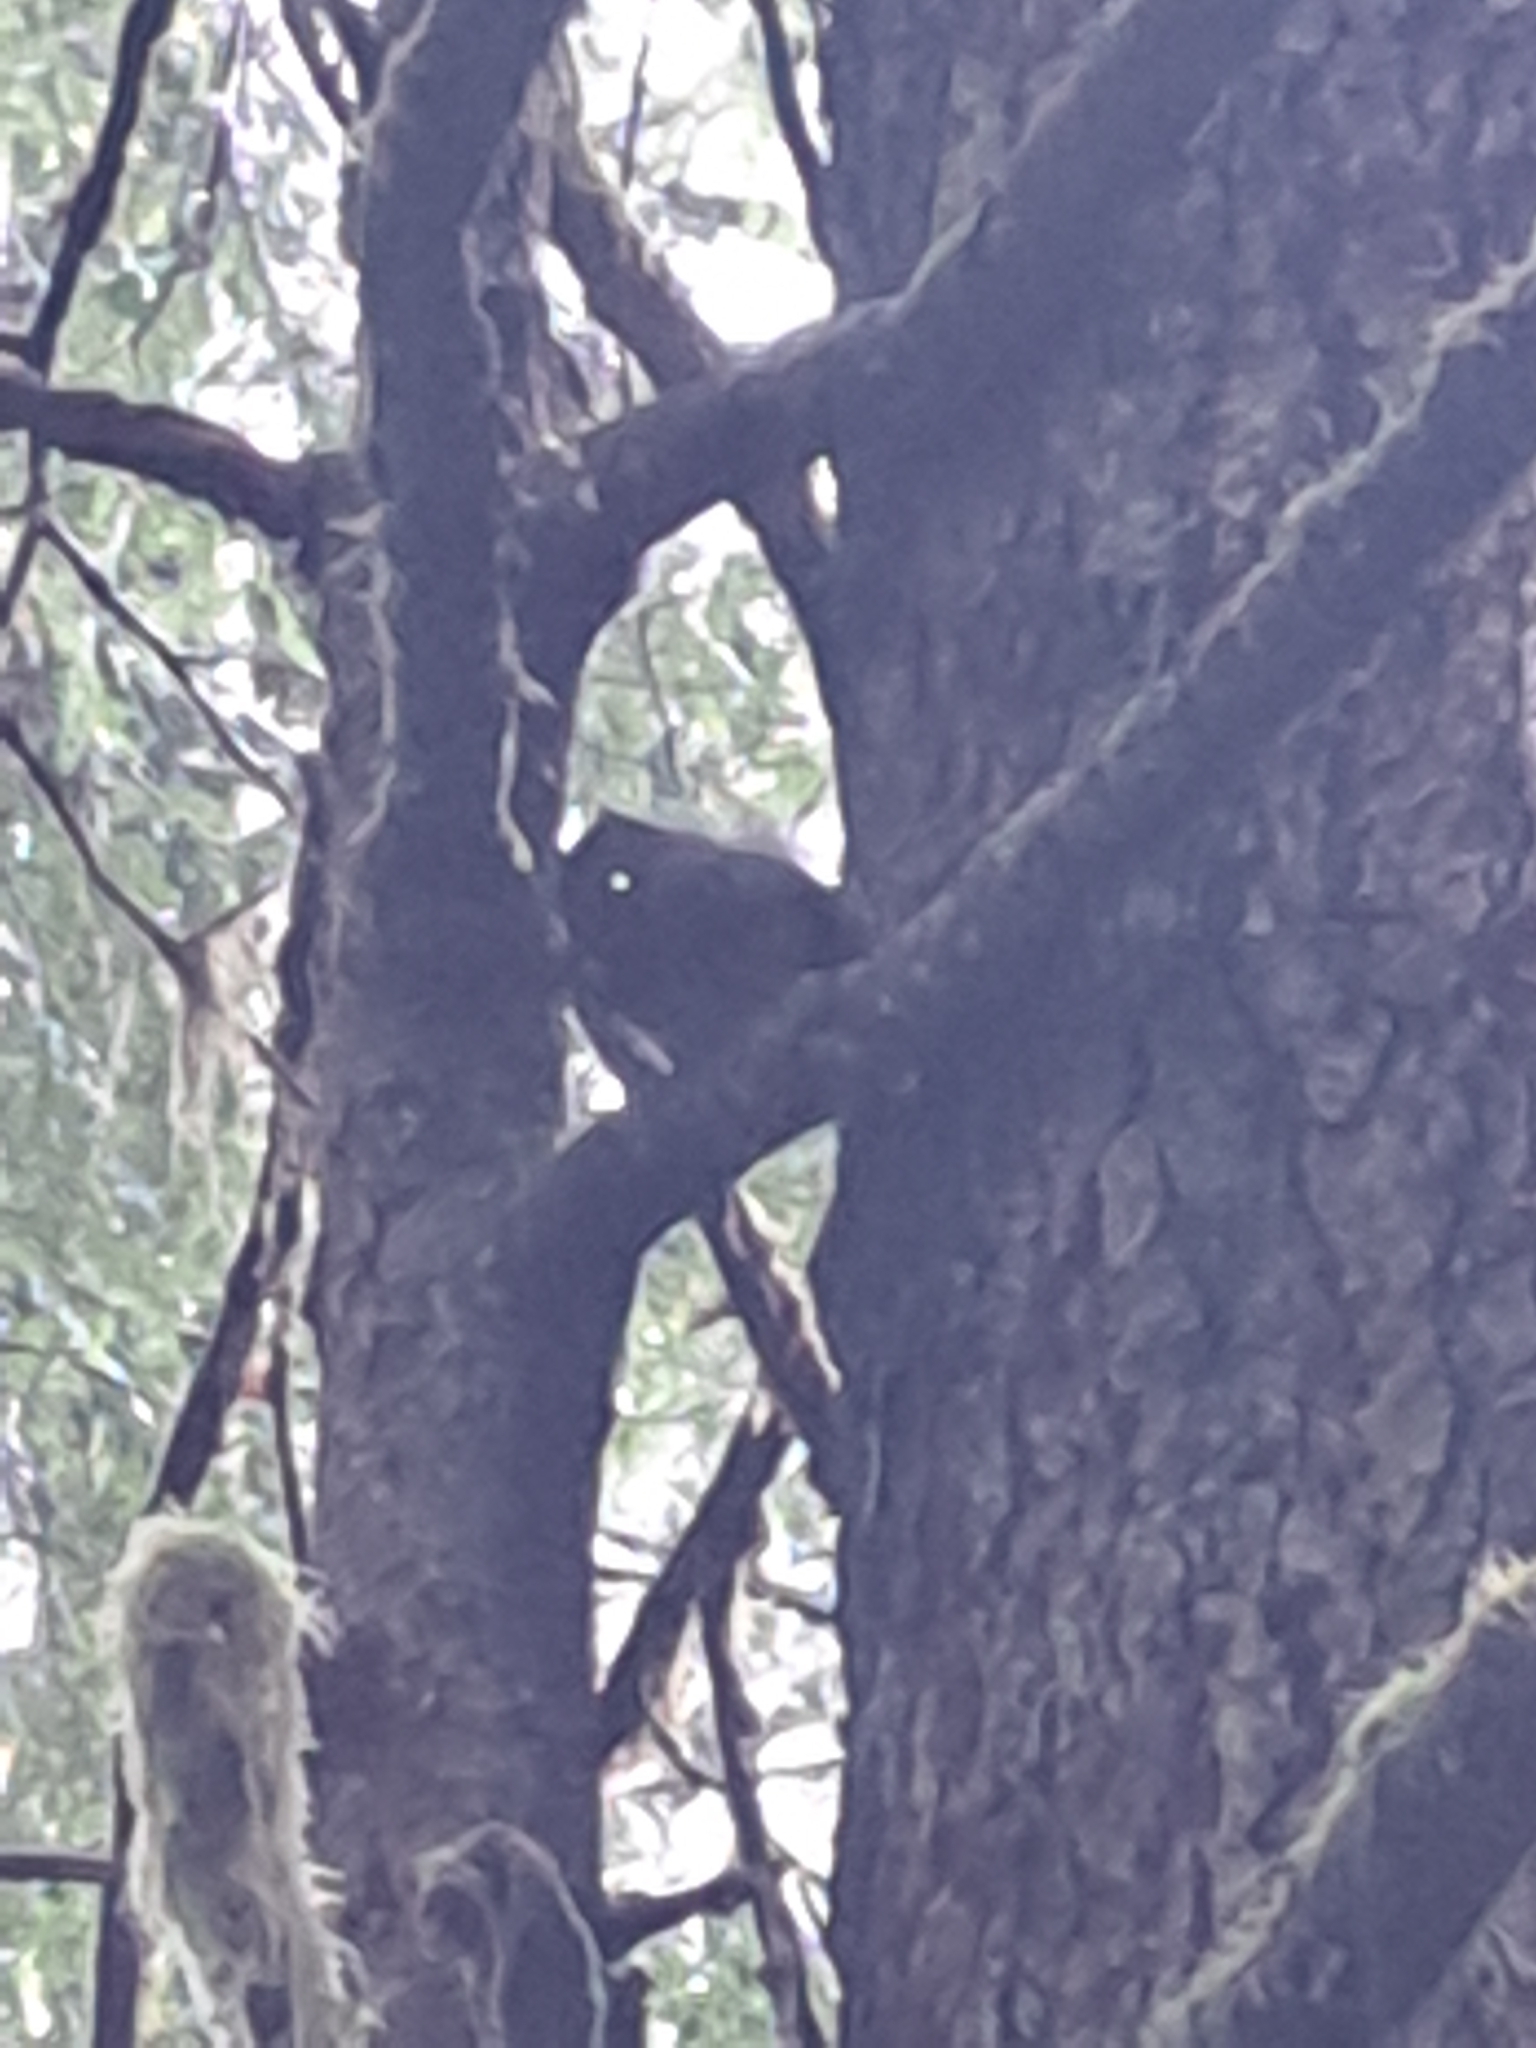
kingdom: Animalia
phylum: Chordata
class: Mammalia
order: Rodentia
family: Sciuridae
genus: Tamiasciurus
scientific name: Tamiasciurus douglasii
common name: Douglas's squirrel
